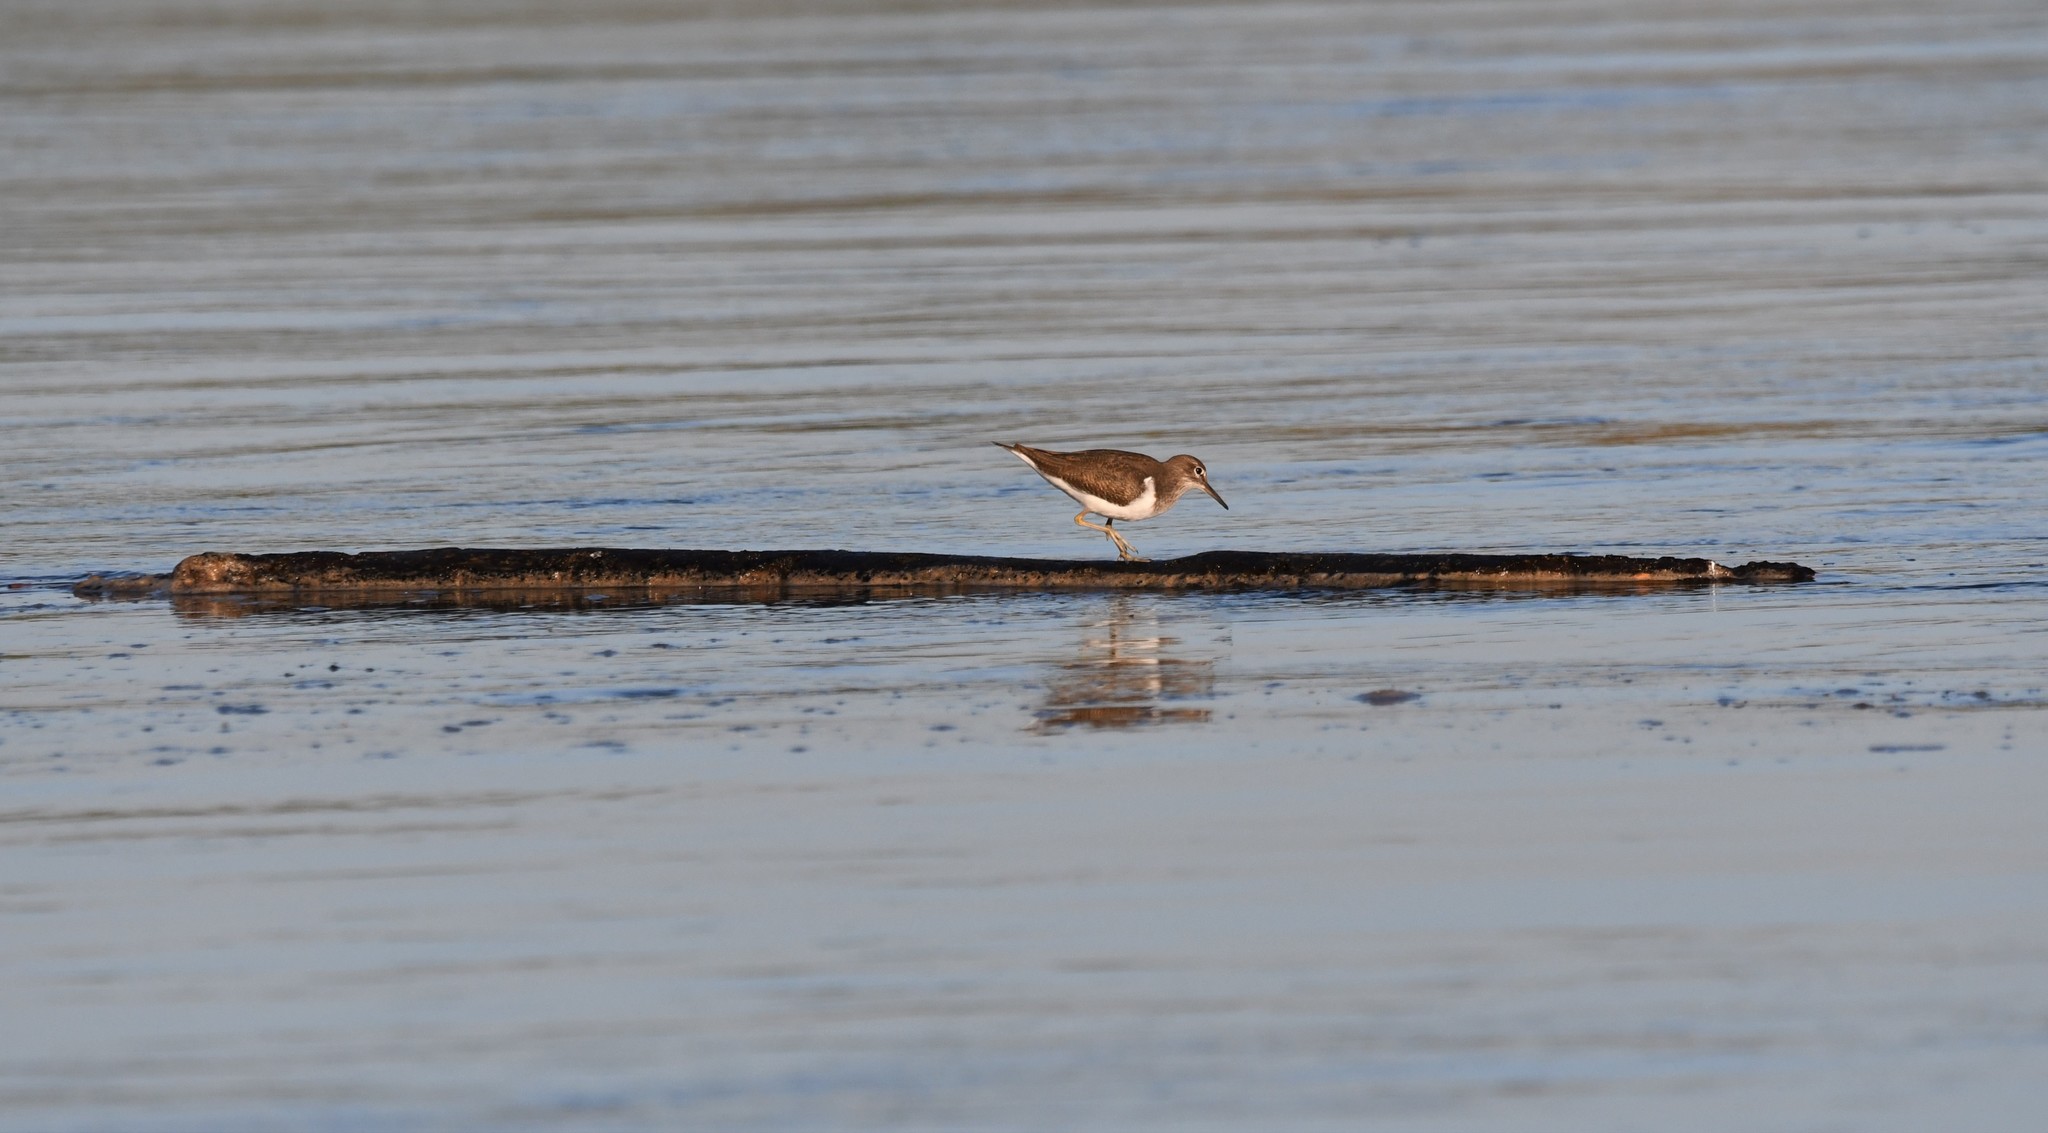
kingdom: Animalia
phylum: Chordata
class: Aves
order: Charadriiformes
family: Scolopacidae
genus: Actitis
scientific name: Actitis hypoleucos
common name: Common sandpiper
